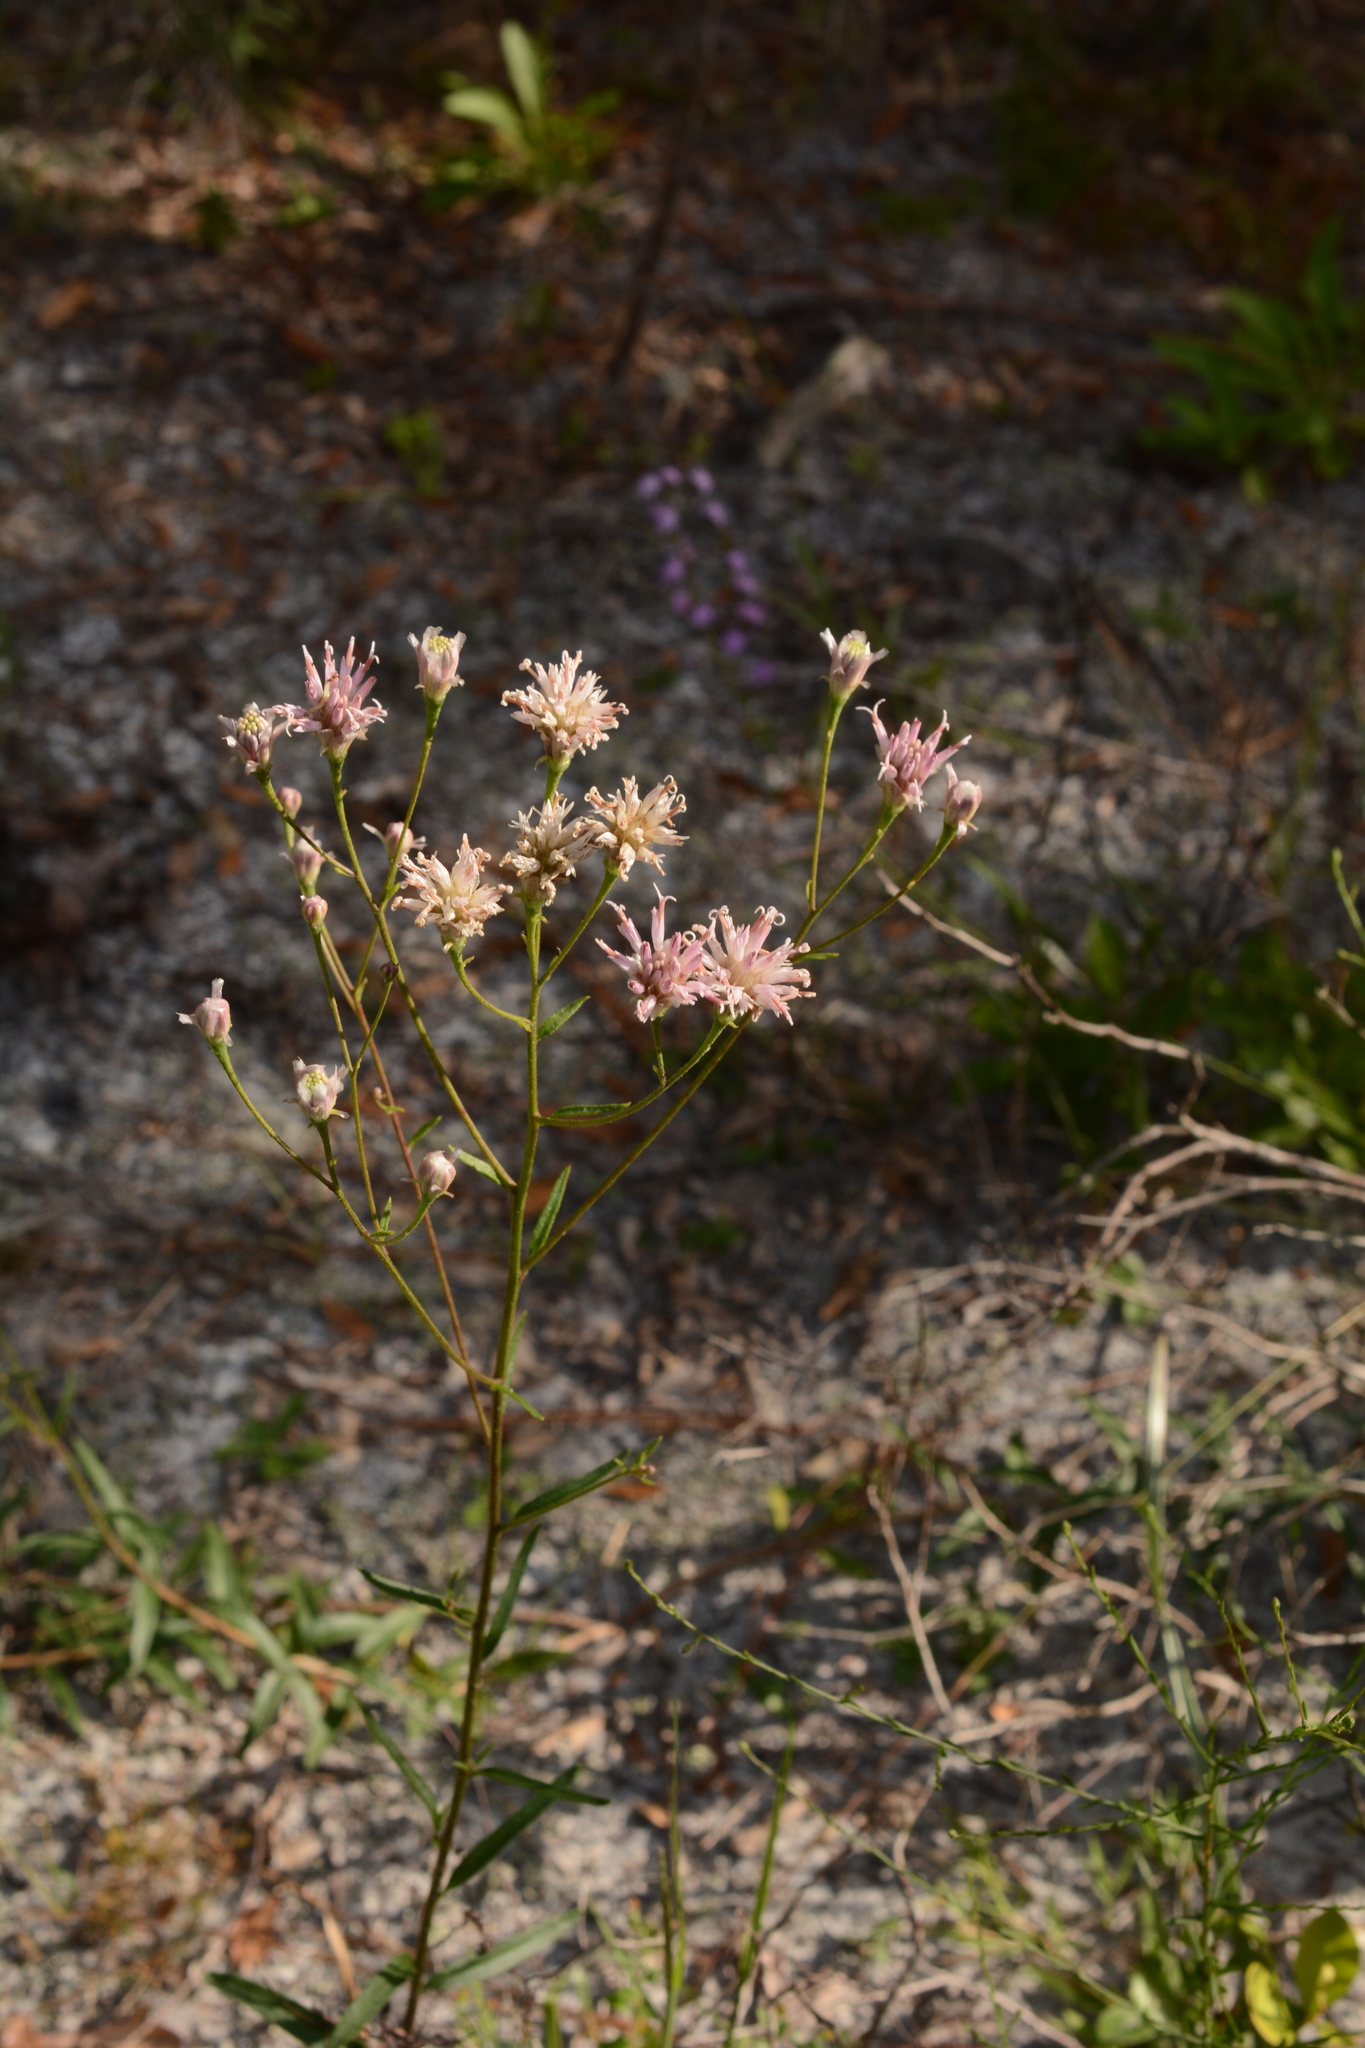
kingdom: Plantae
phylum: Tracheophyta
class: Magnoliopsida
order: Asterales
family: Asteraceae
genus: Palafoxia
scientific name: Palafoxia integrifolia
